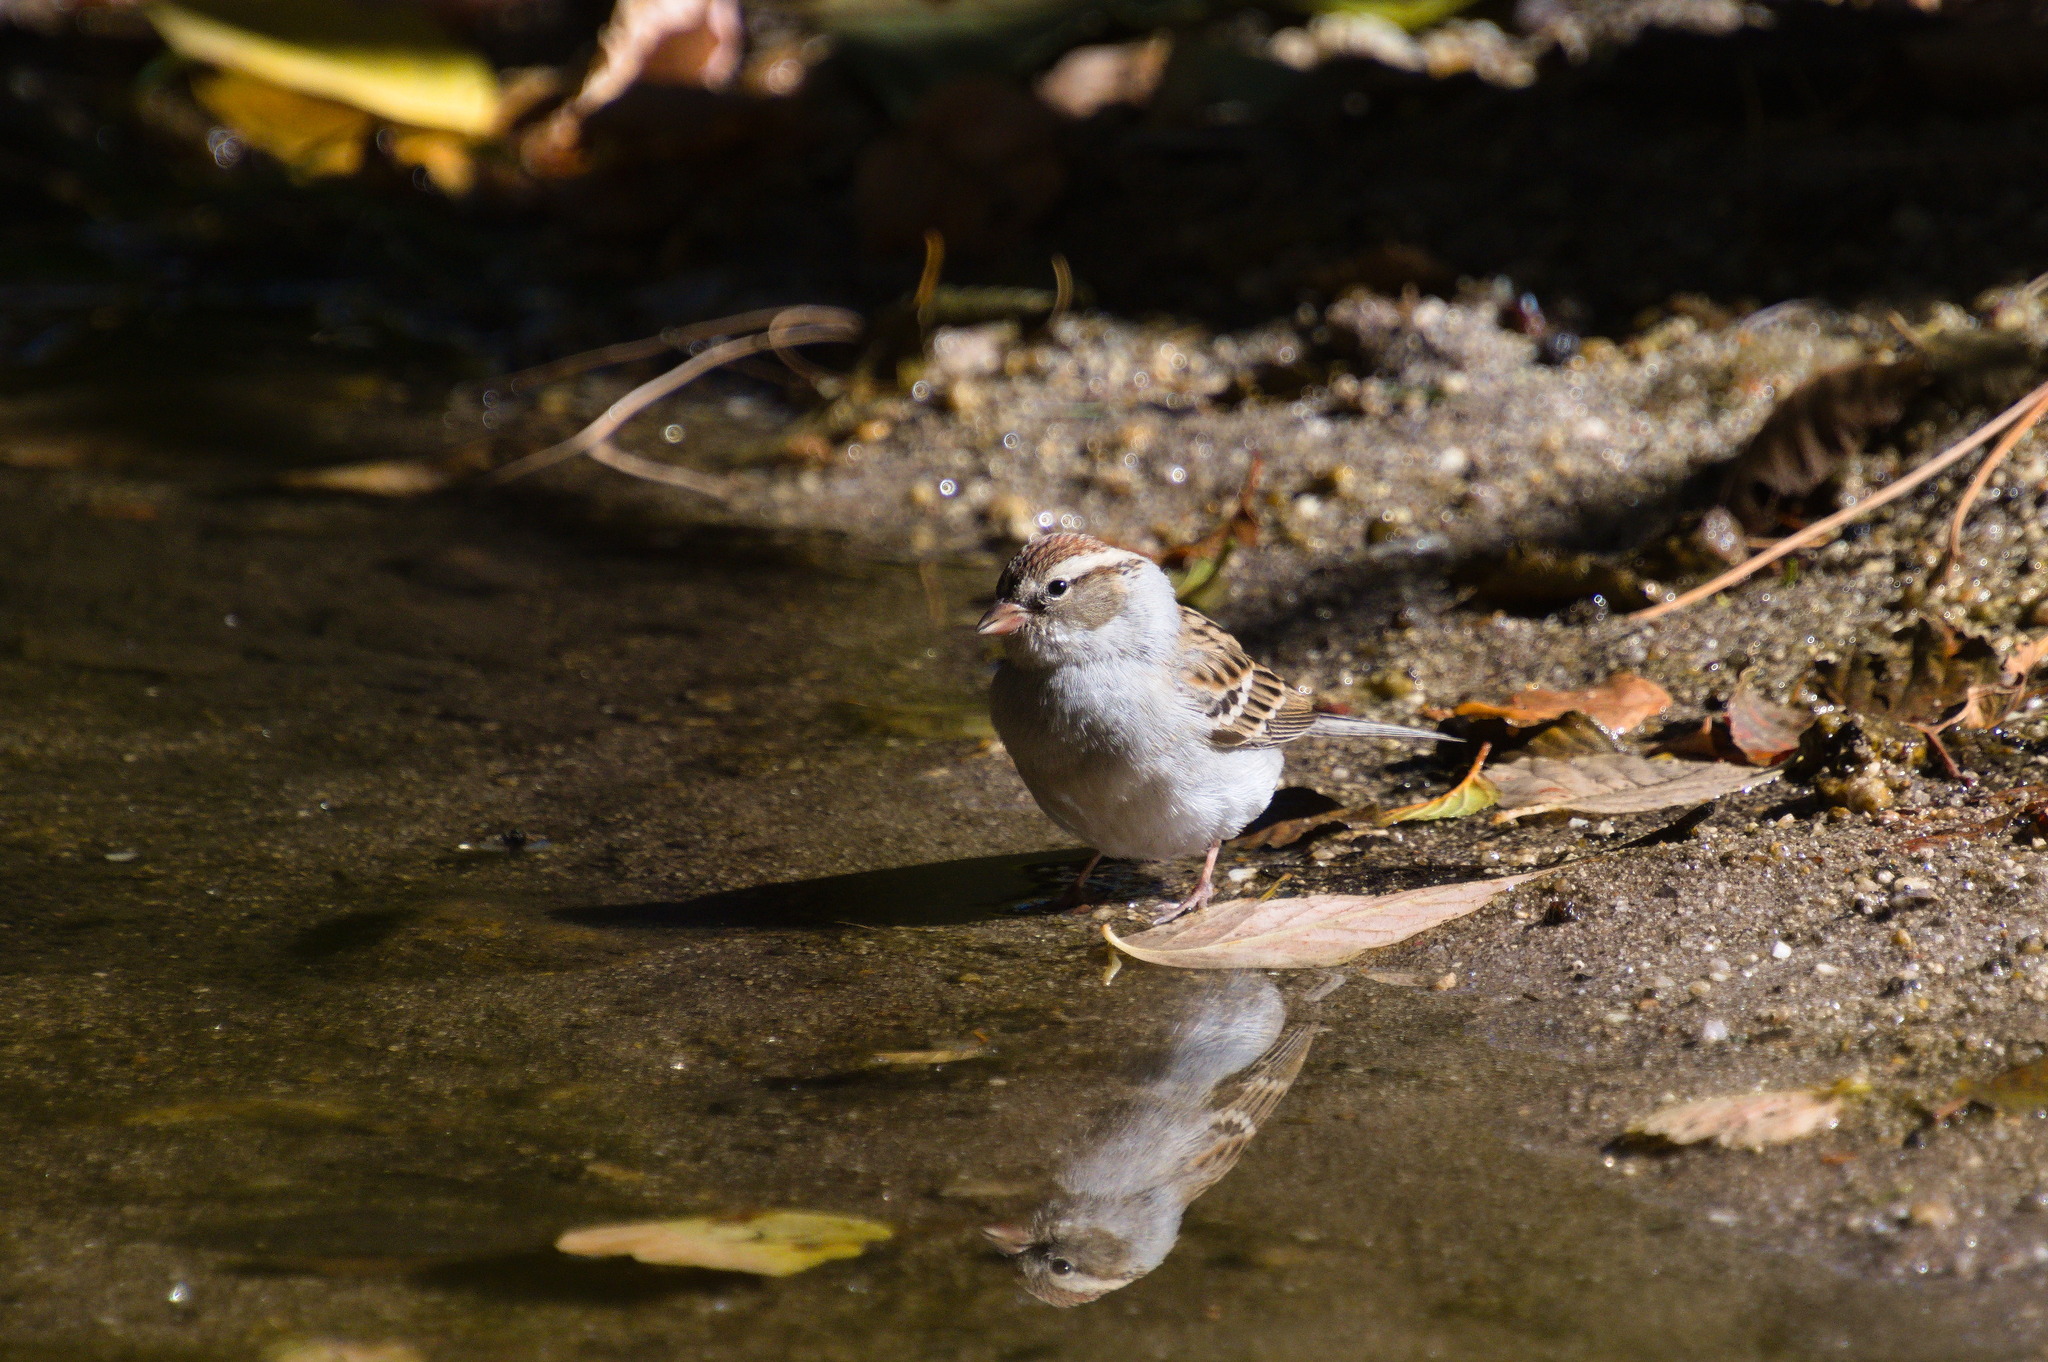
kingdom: Animalia
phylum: Chordata
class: Aves
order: Passeriformes
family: Passerellidae
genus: Spizella
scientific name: Spizella passerina
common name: Chipping sparrow
